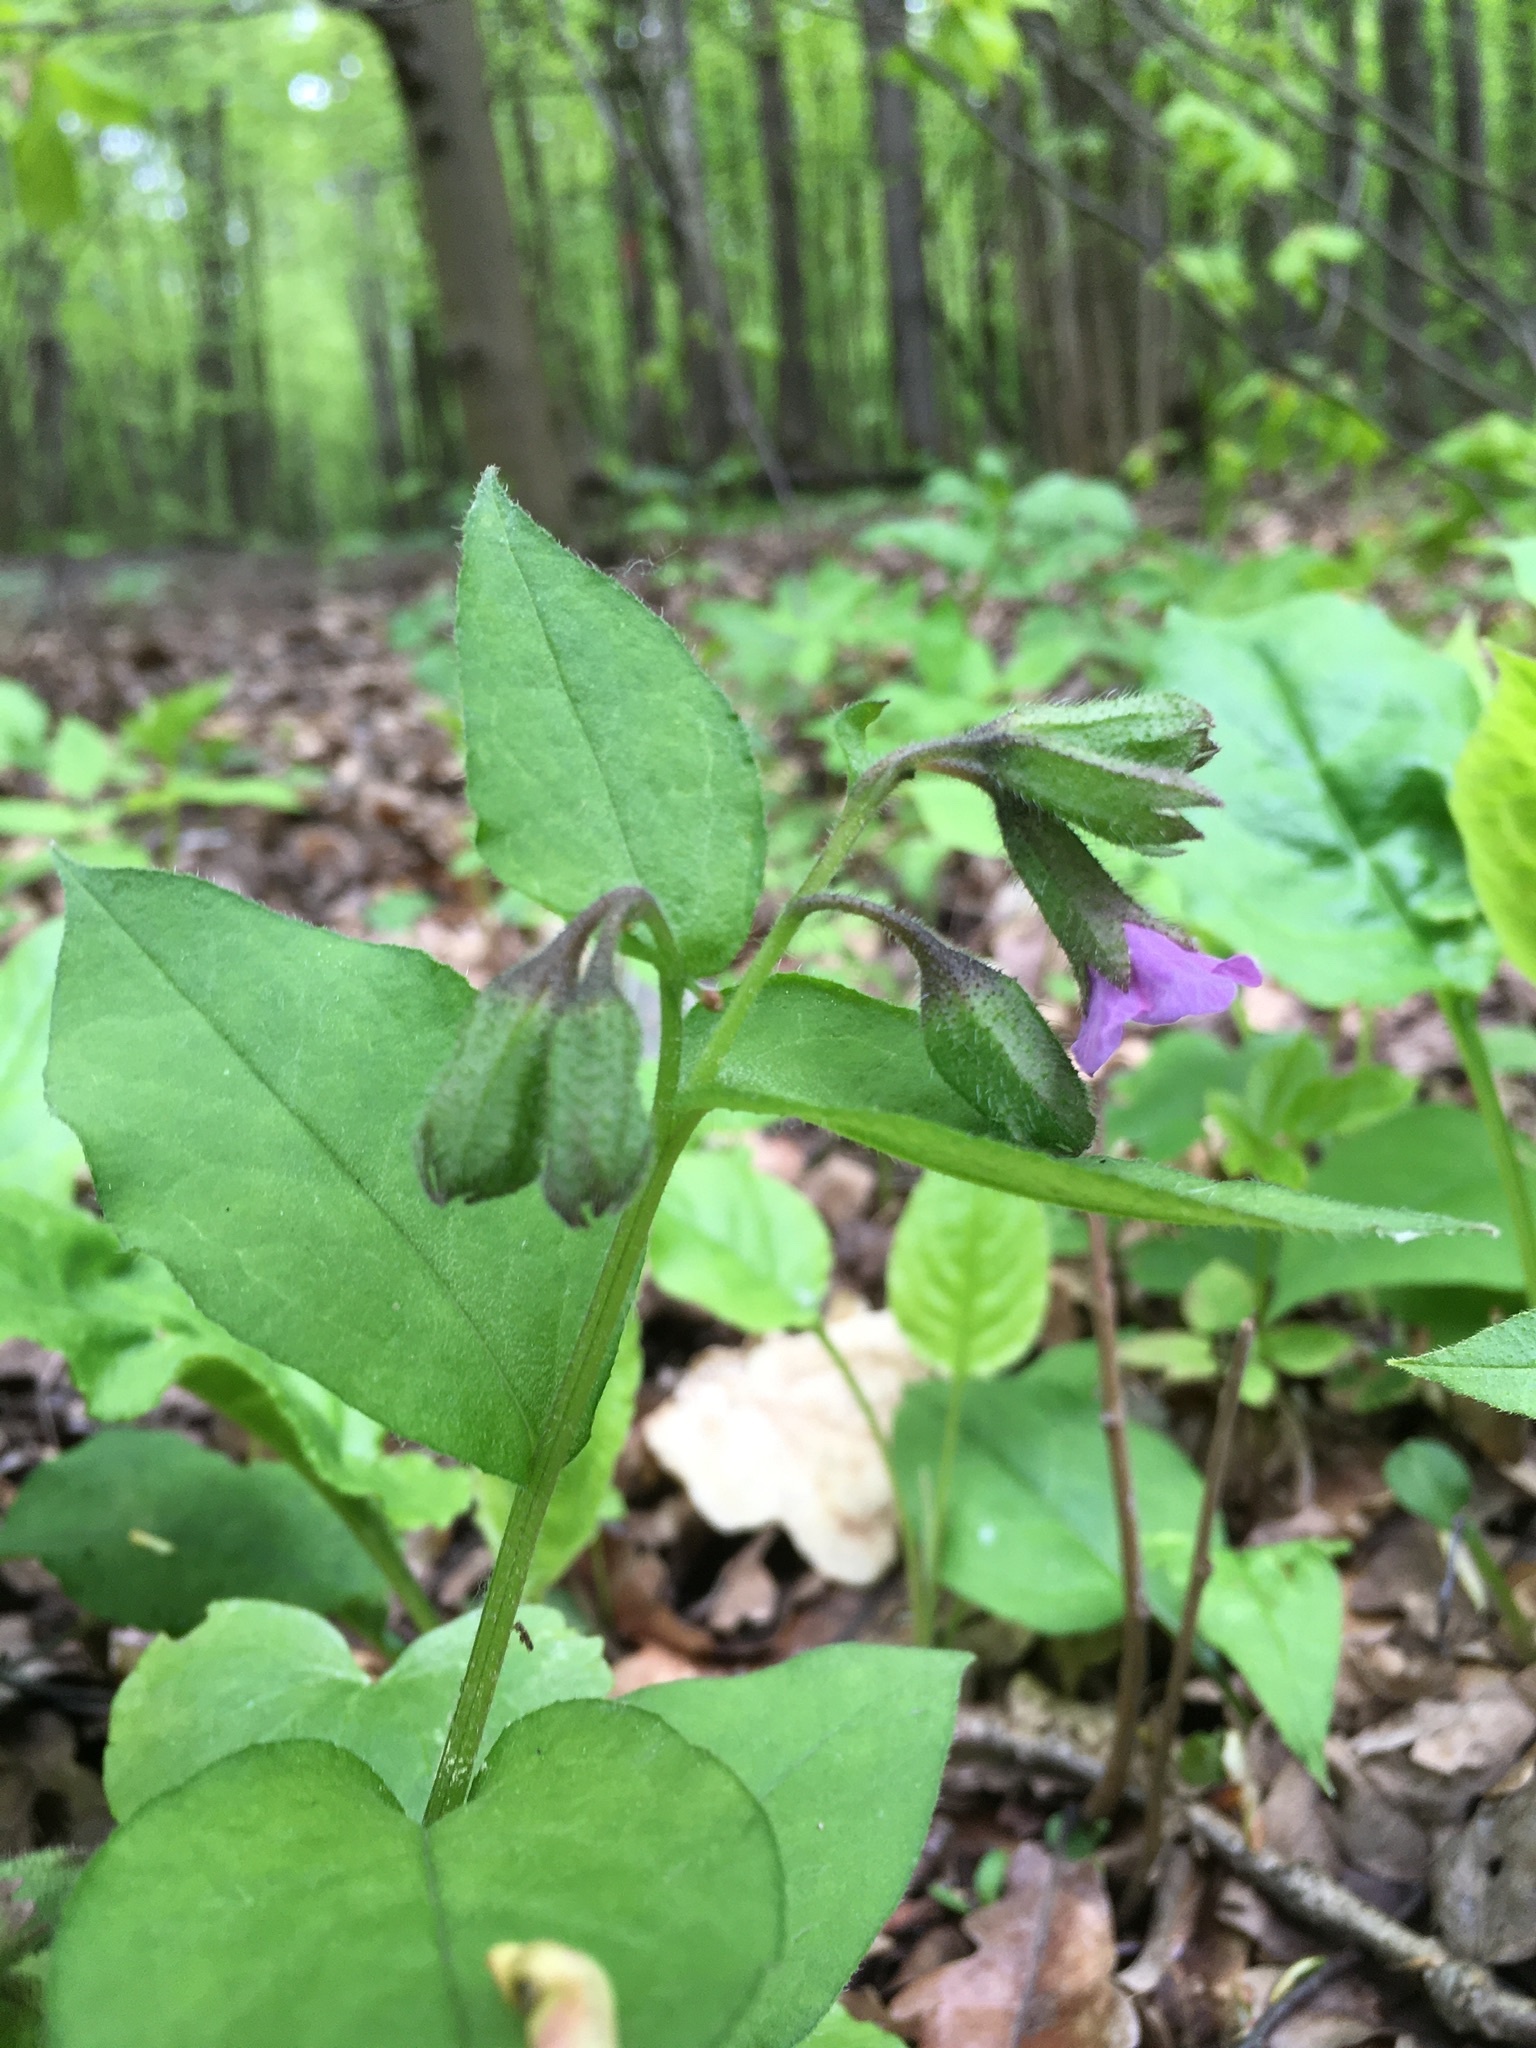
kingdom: Plantae
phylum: Tracheophyta
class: Magnoliopsida
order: Boraginales
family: Boraginaceae
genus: Pulmonaria
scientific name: Pulmonaria obscura
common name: Suffolk lungwort
